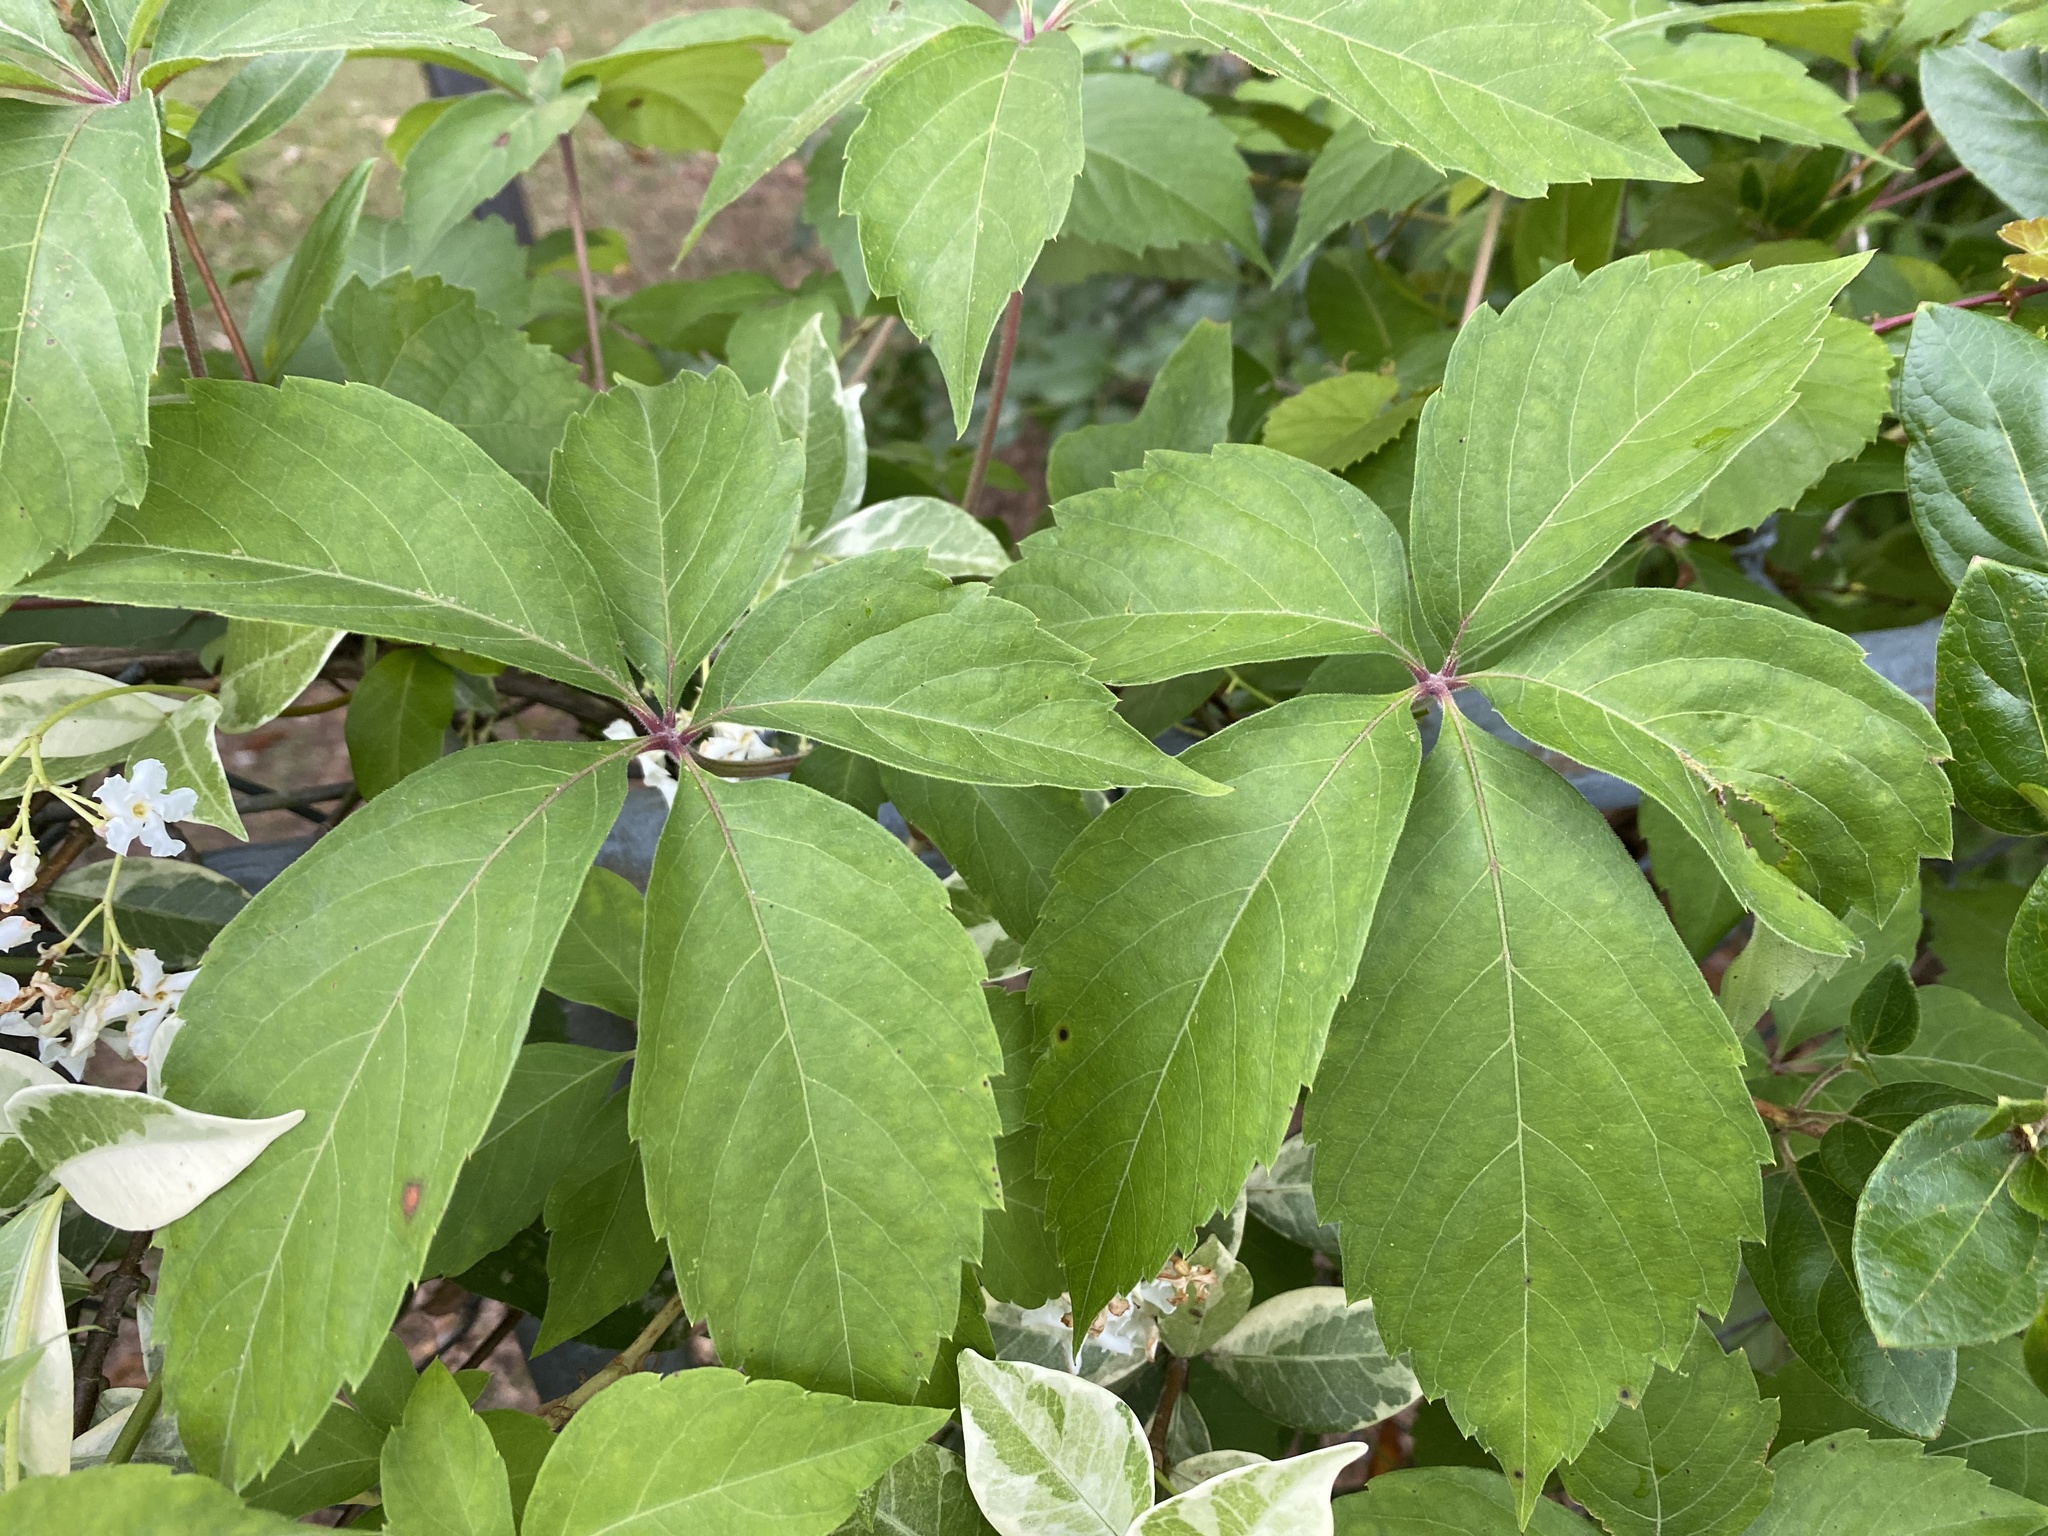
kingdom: Plantae
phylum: Tracheophyta
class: Magnoliopsida
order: Vitales
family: Vitaceae
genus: Parthenocissus
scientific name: Parthenocissus quinquefolia
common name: Virginia-creeper
